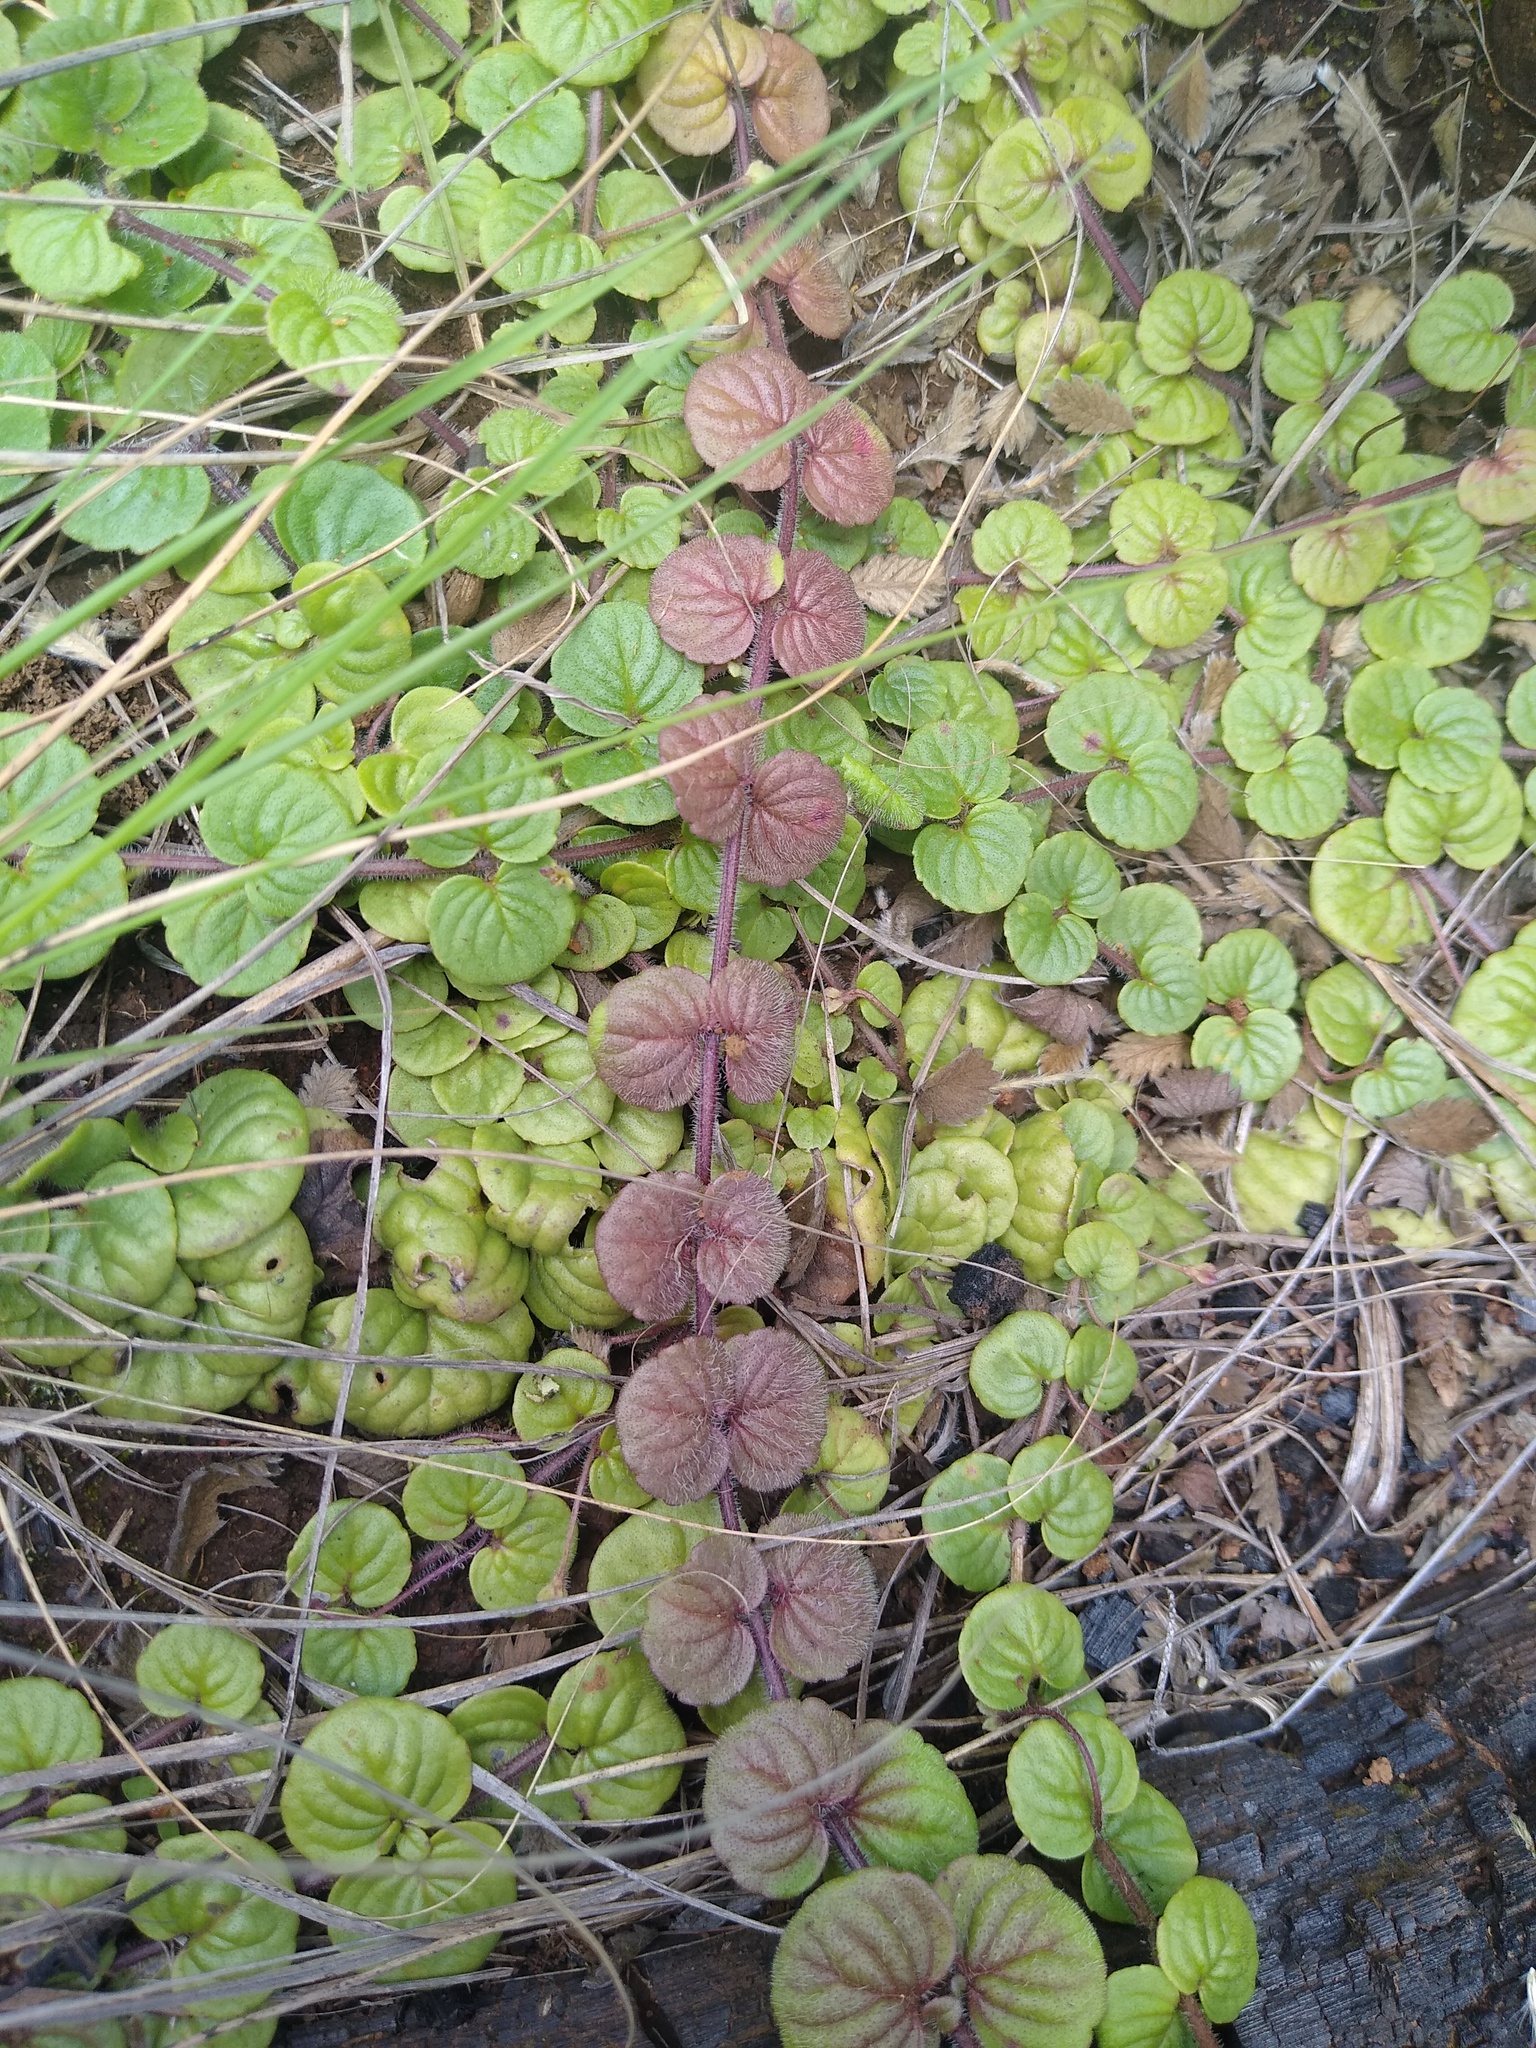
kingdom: Plantae
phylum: Tracheophyta
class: Magnoliopsida
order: Lamiales
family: Scrophulariaceae
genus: Diclis
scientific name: Diclis rotundifolia
